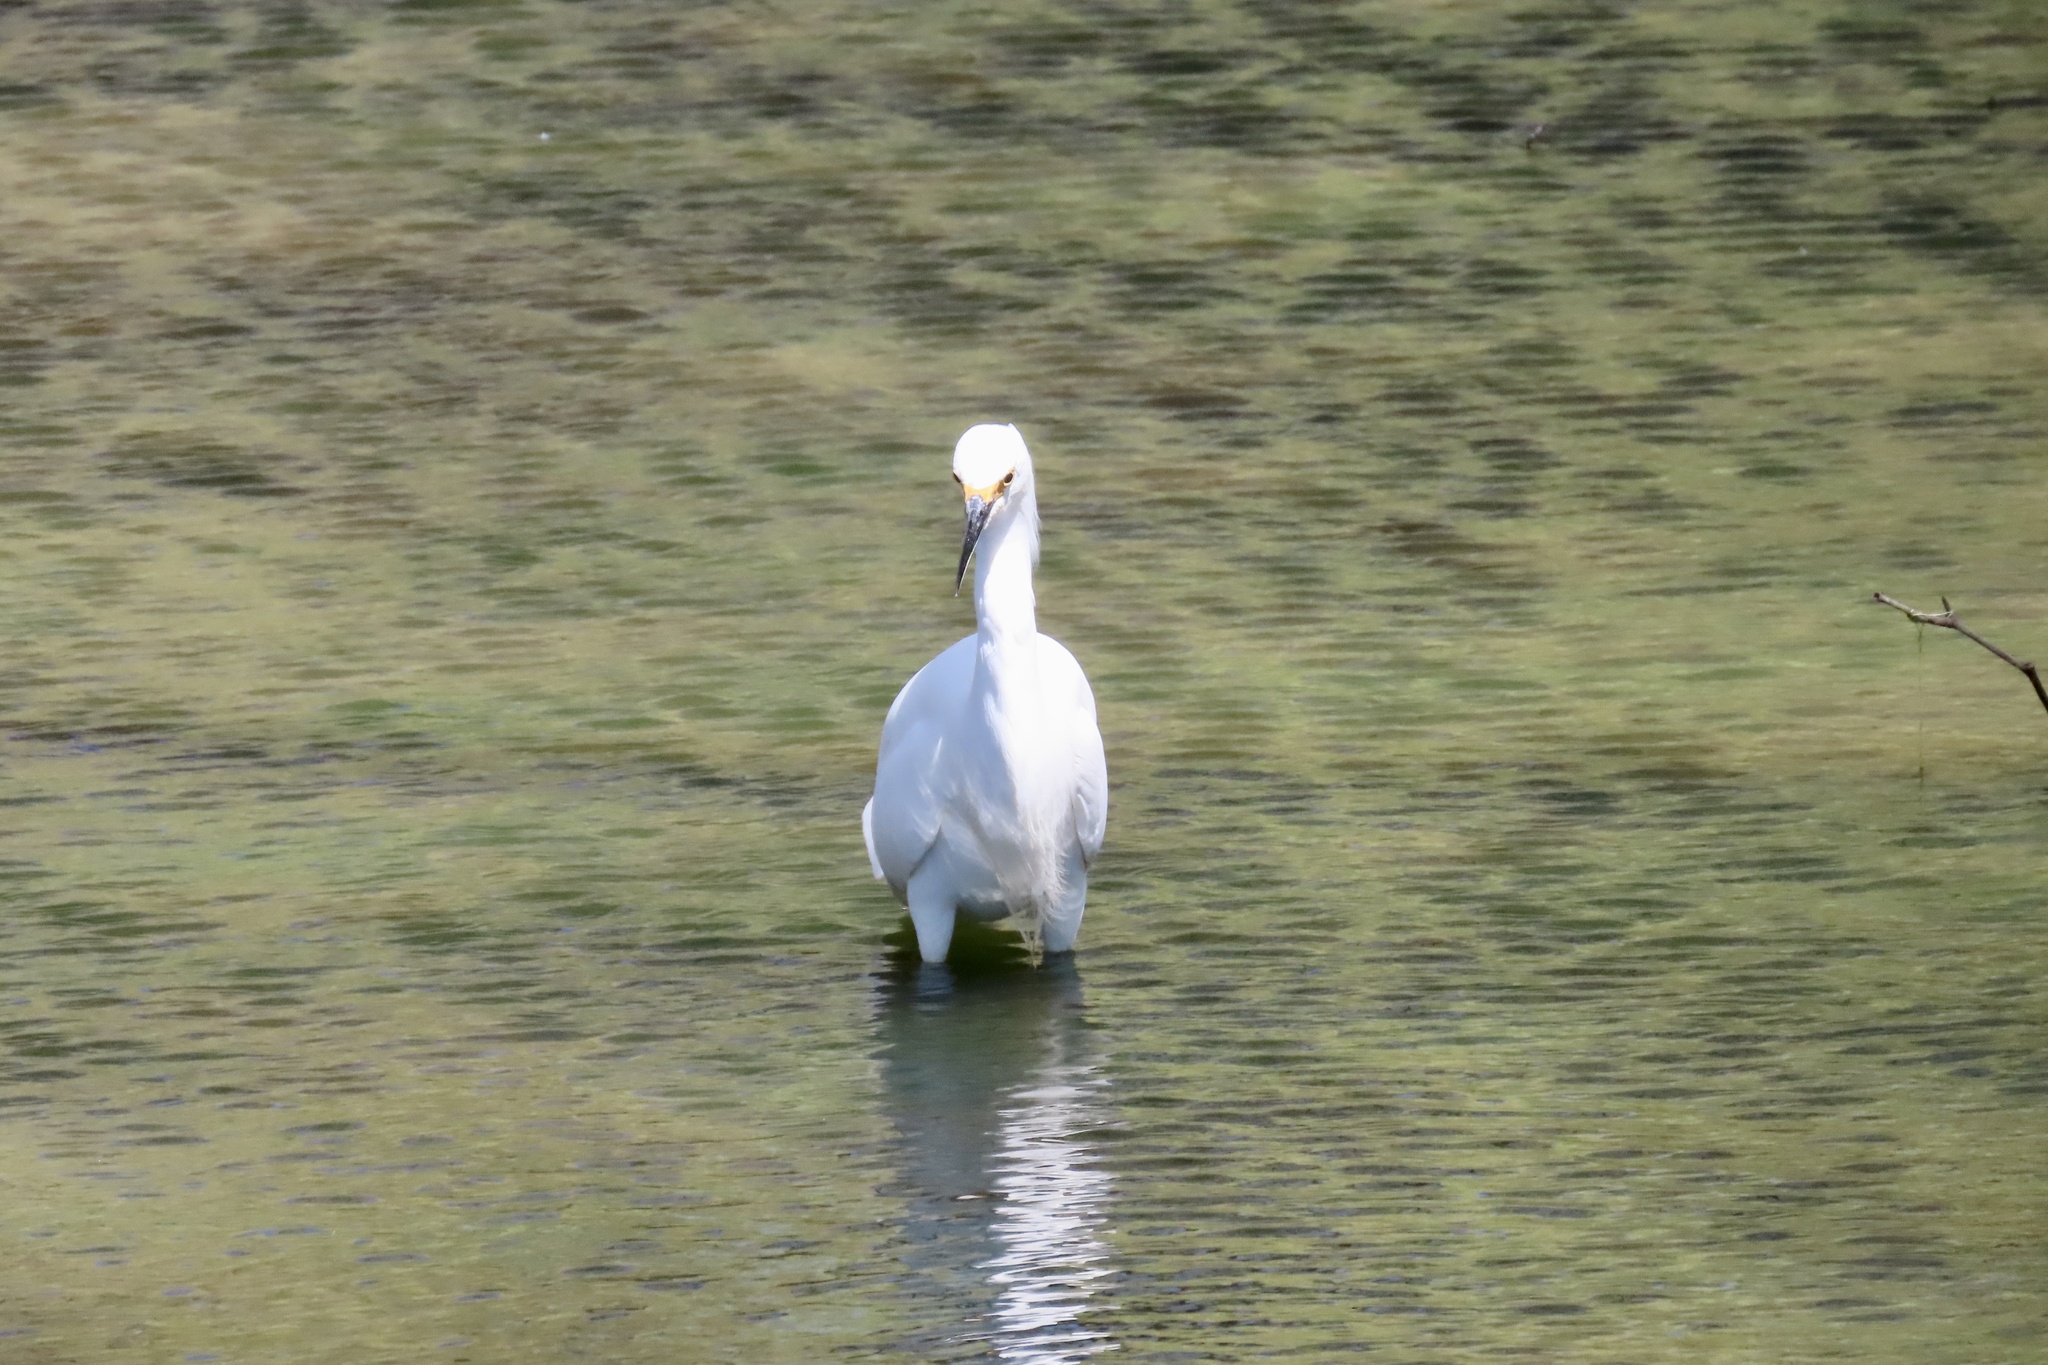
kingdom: Animalia
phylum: Chordata
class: Aves
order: Pelecaniformes
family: Ardeidae
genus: Egretta
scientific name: Egretta thula
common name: Snowy egret
